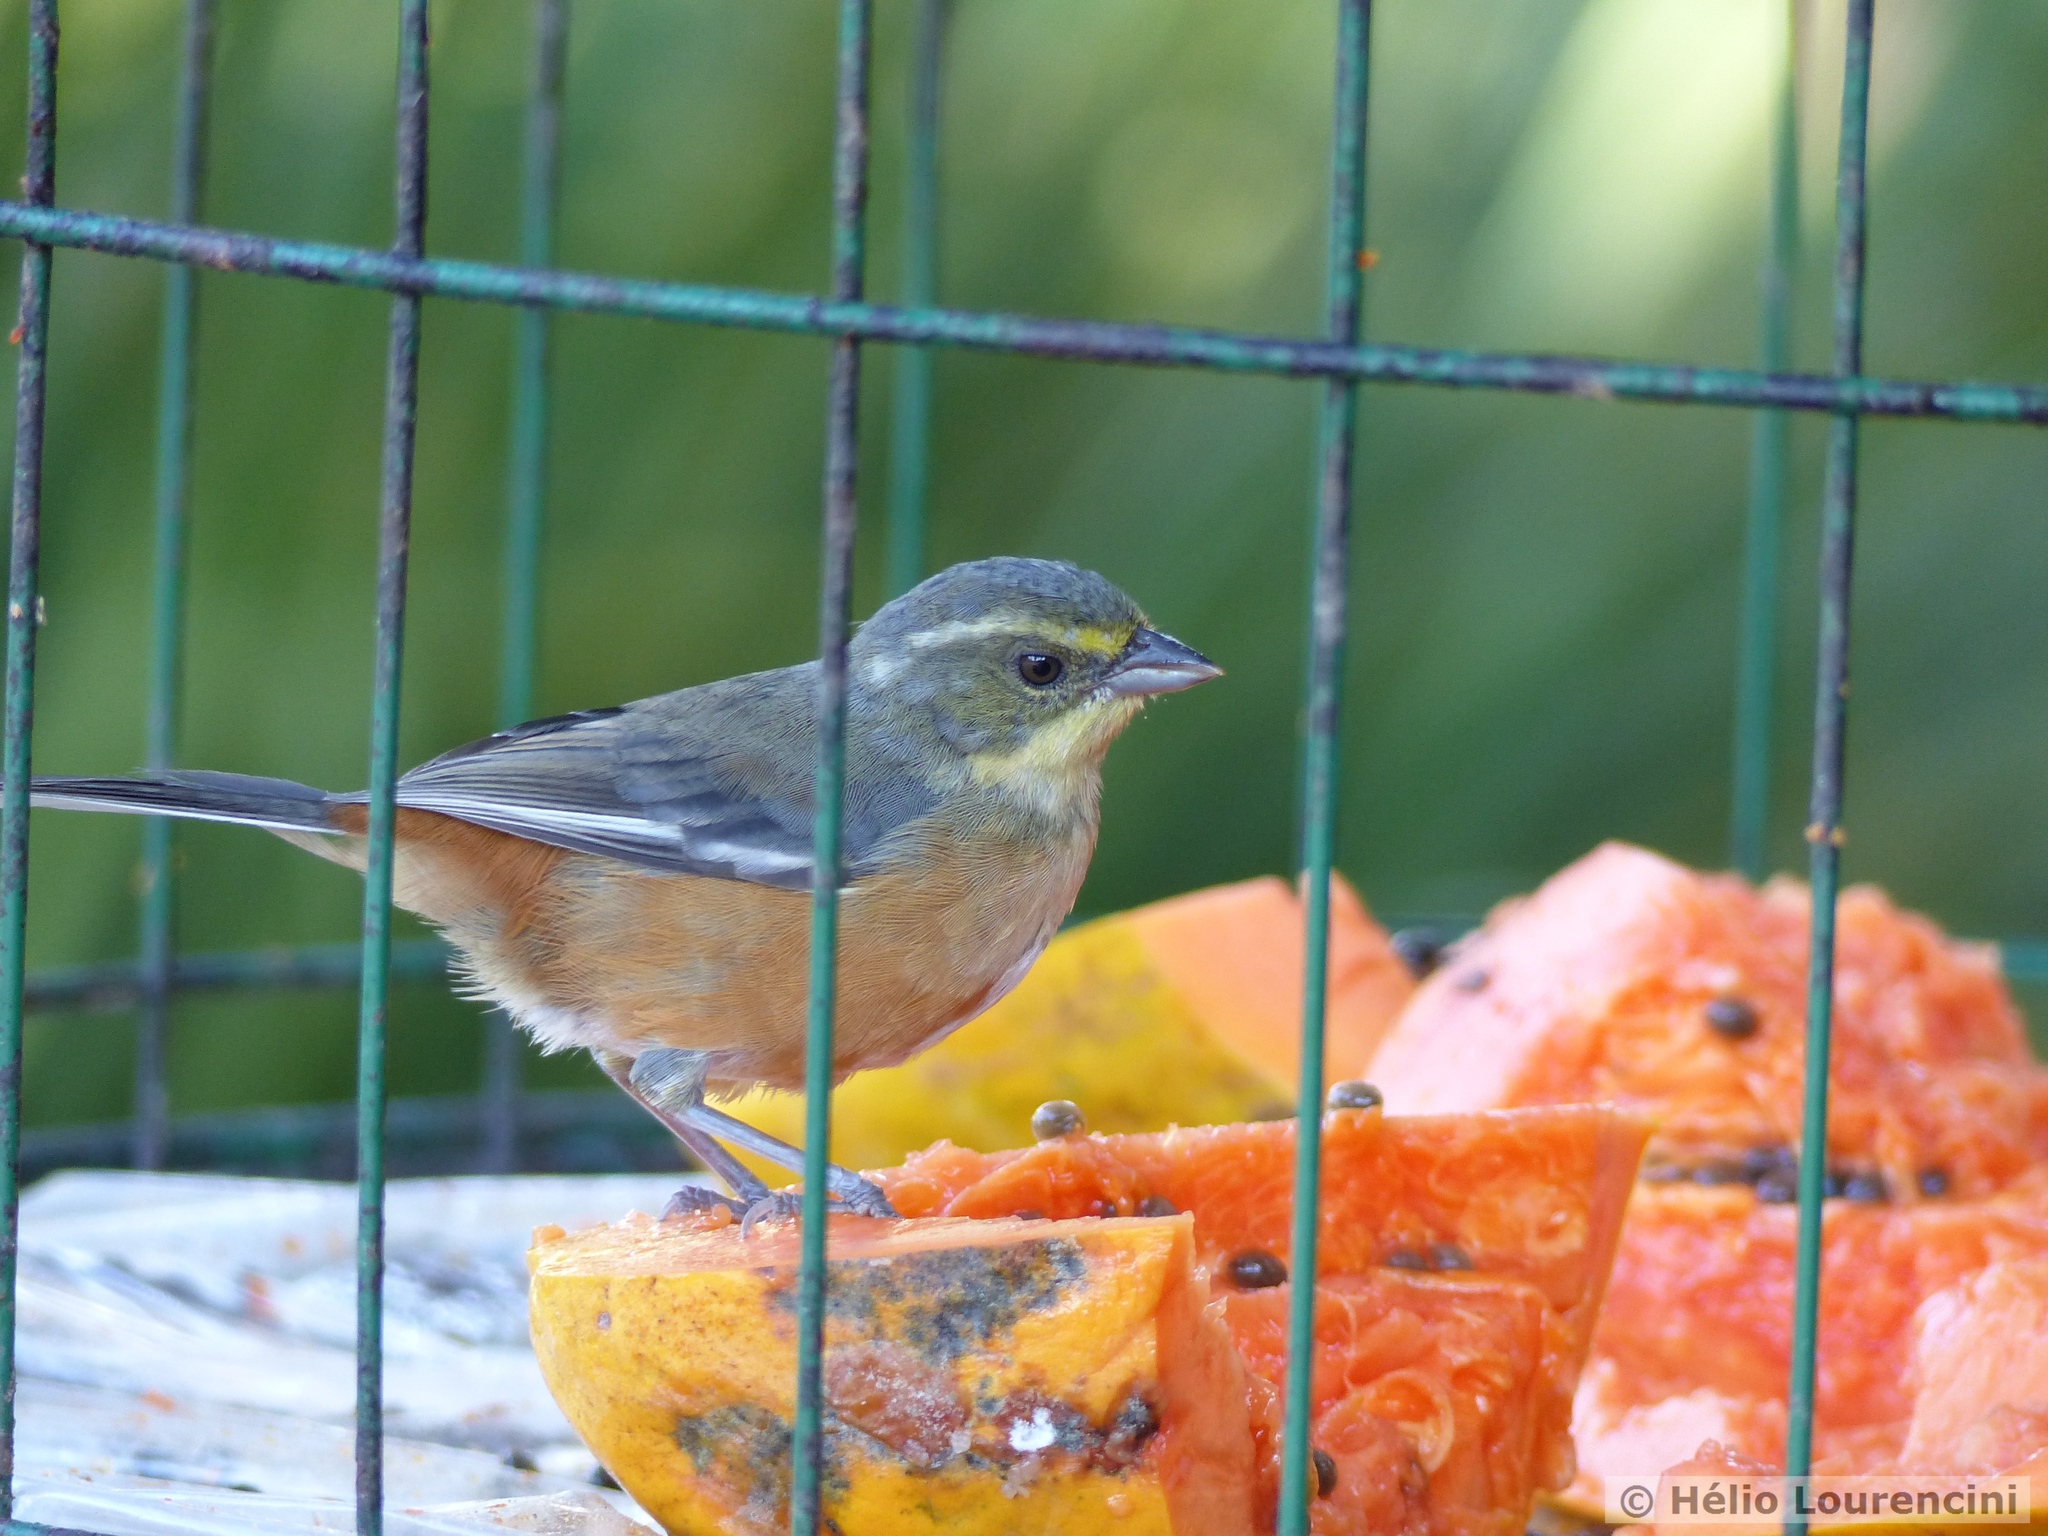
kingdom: Animalia
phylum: Chordata
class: Aves
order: Passeriformes
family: Thraupidae
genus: Microspingus
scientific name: Microspingus lateralis
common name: Buff-throated warbling-finch
